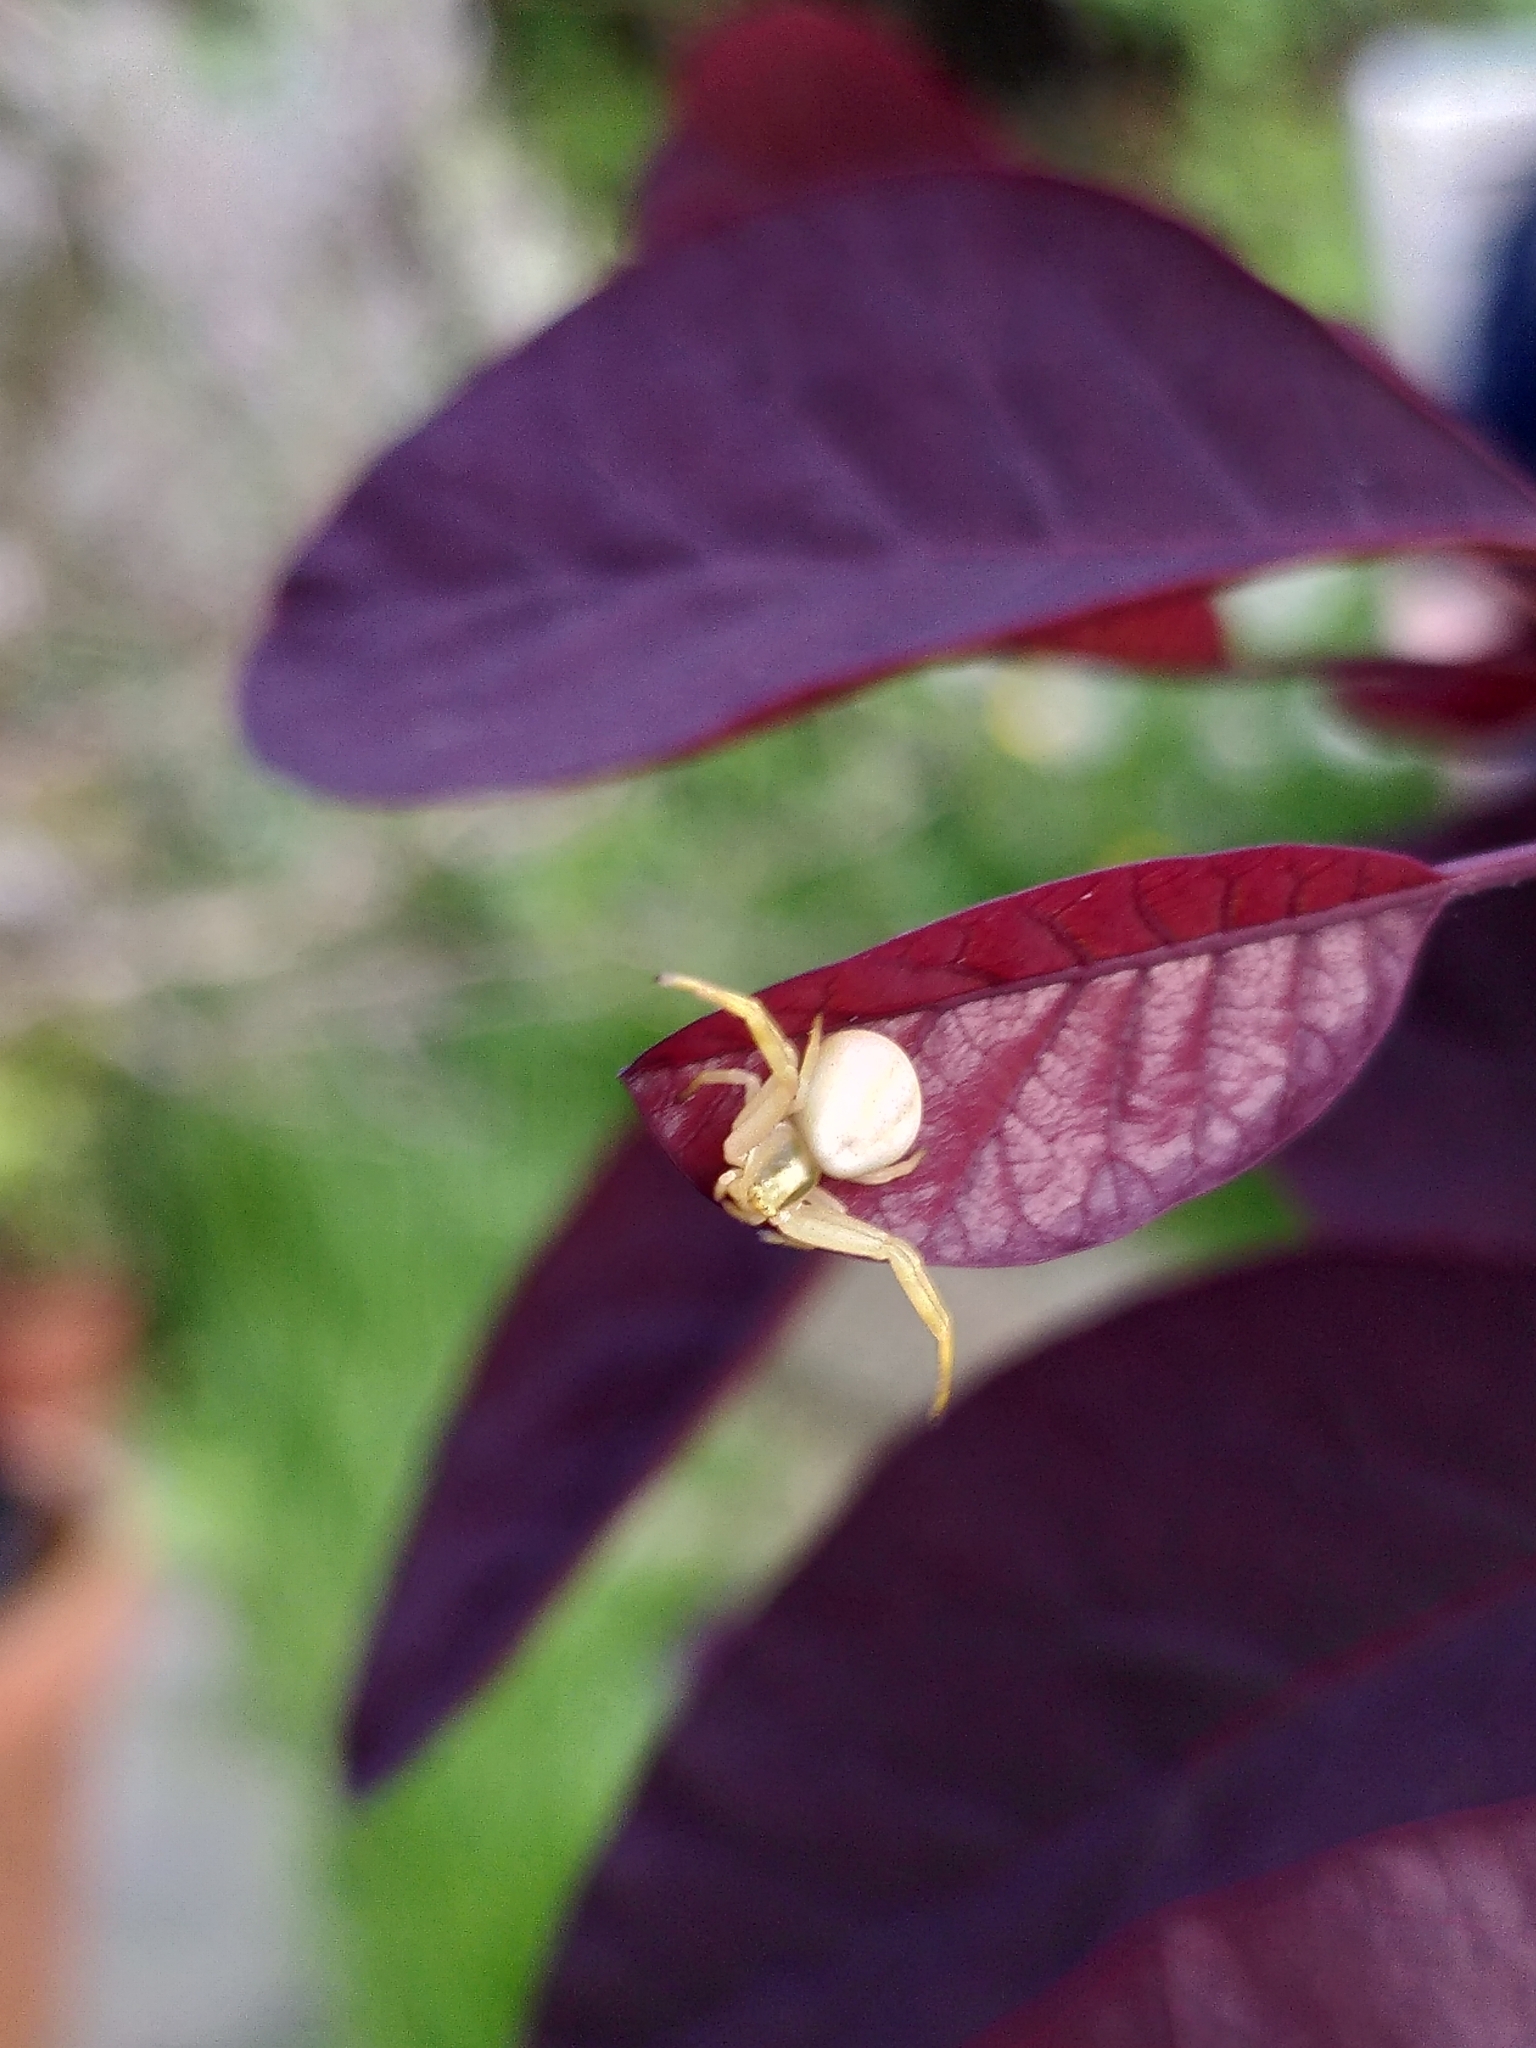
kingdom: Animalia
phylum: Arthropoda
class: Arachnida
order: Araneae
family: Thomisidae
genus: Misumena
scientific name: Misumena vatia
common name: Goldenrod crab spider
